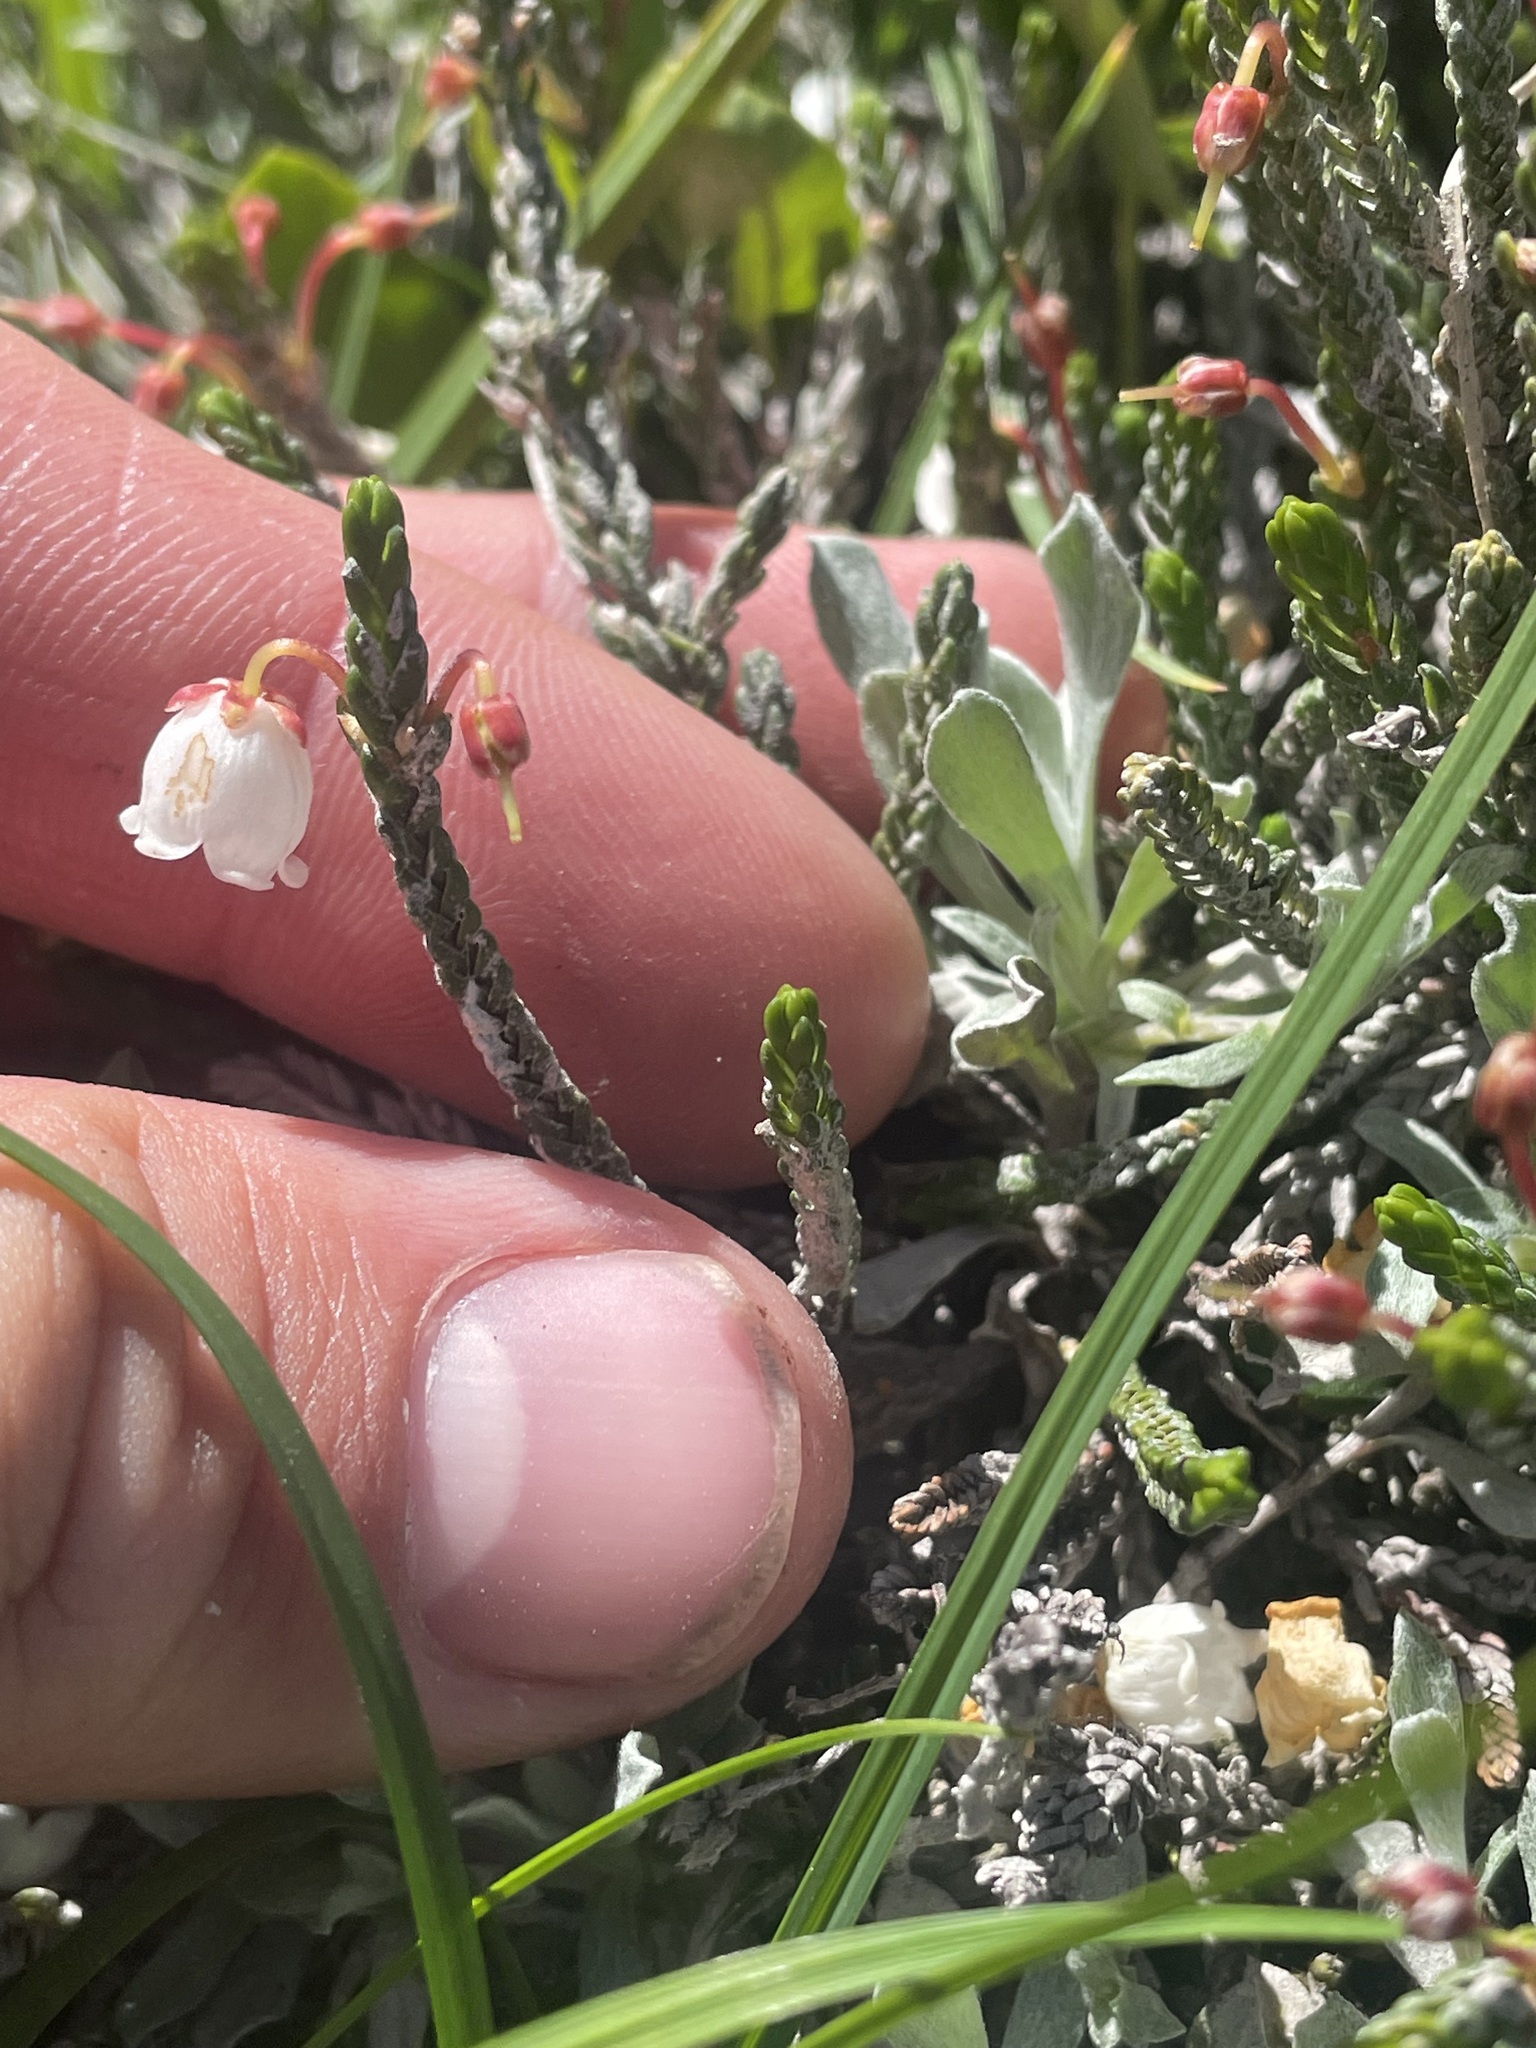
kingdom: Plantae
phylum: Tracheophyta
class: Magnoliopsida
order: Ericales
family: Ericaceae
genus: Cassiope
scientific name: Cassiope mertensiana
